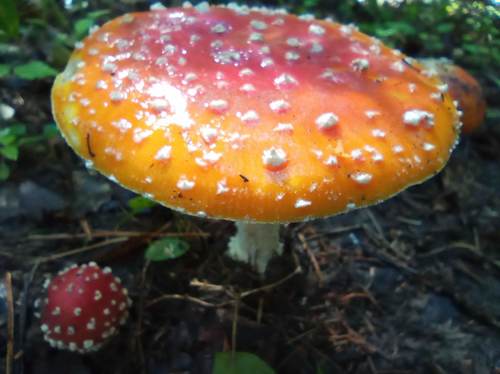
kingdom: Fungi
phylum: Basidiomycota
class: Agaricomycetes
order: Agaricales
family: Amanitaceae
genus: Amanita
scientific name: Amanita muscaria
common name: Fly agaric
